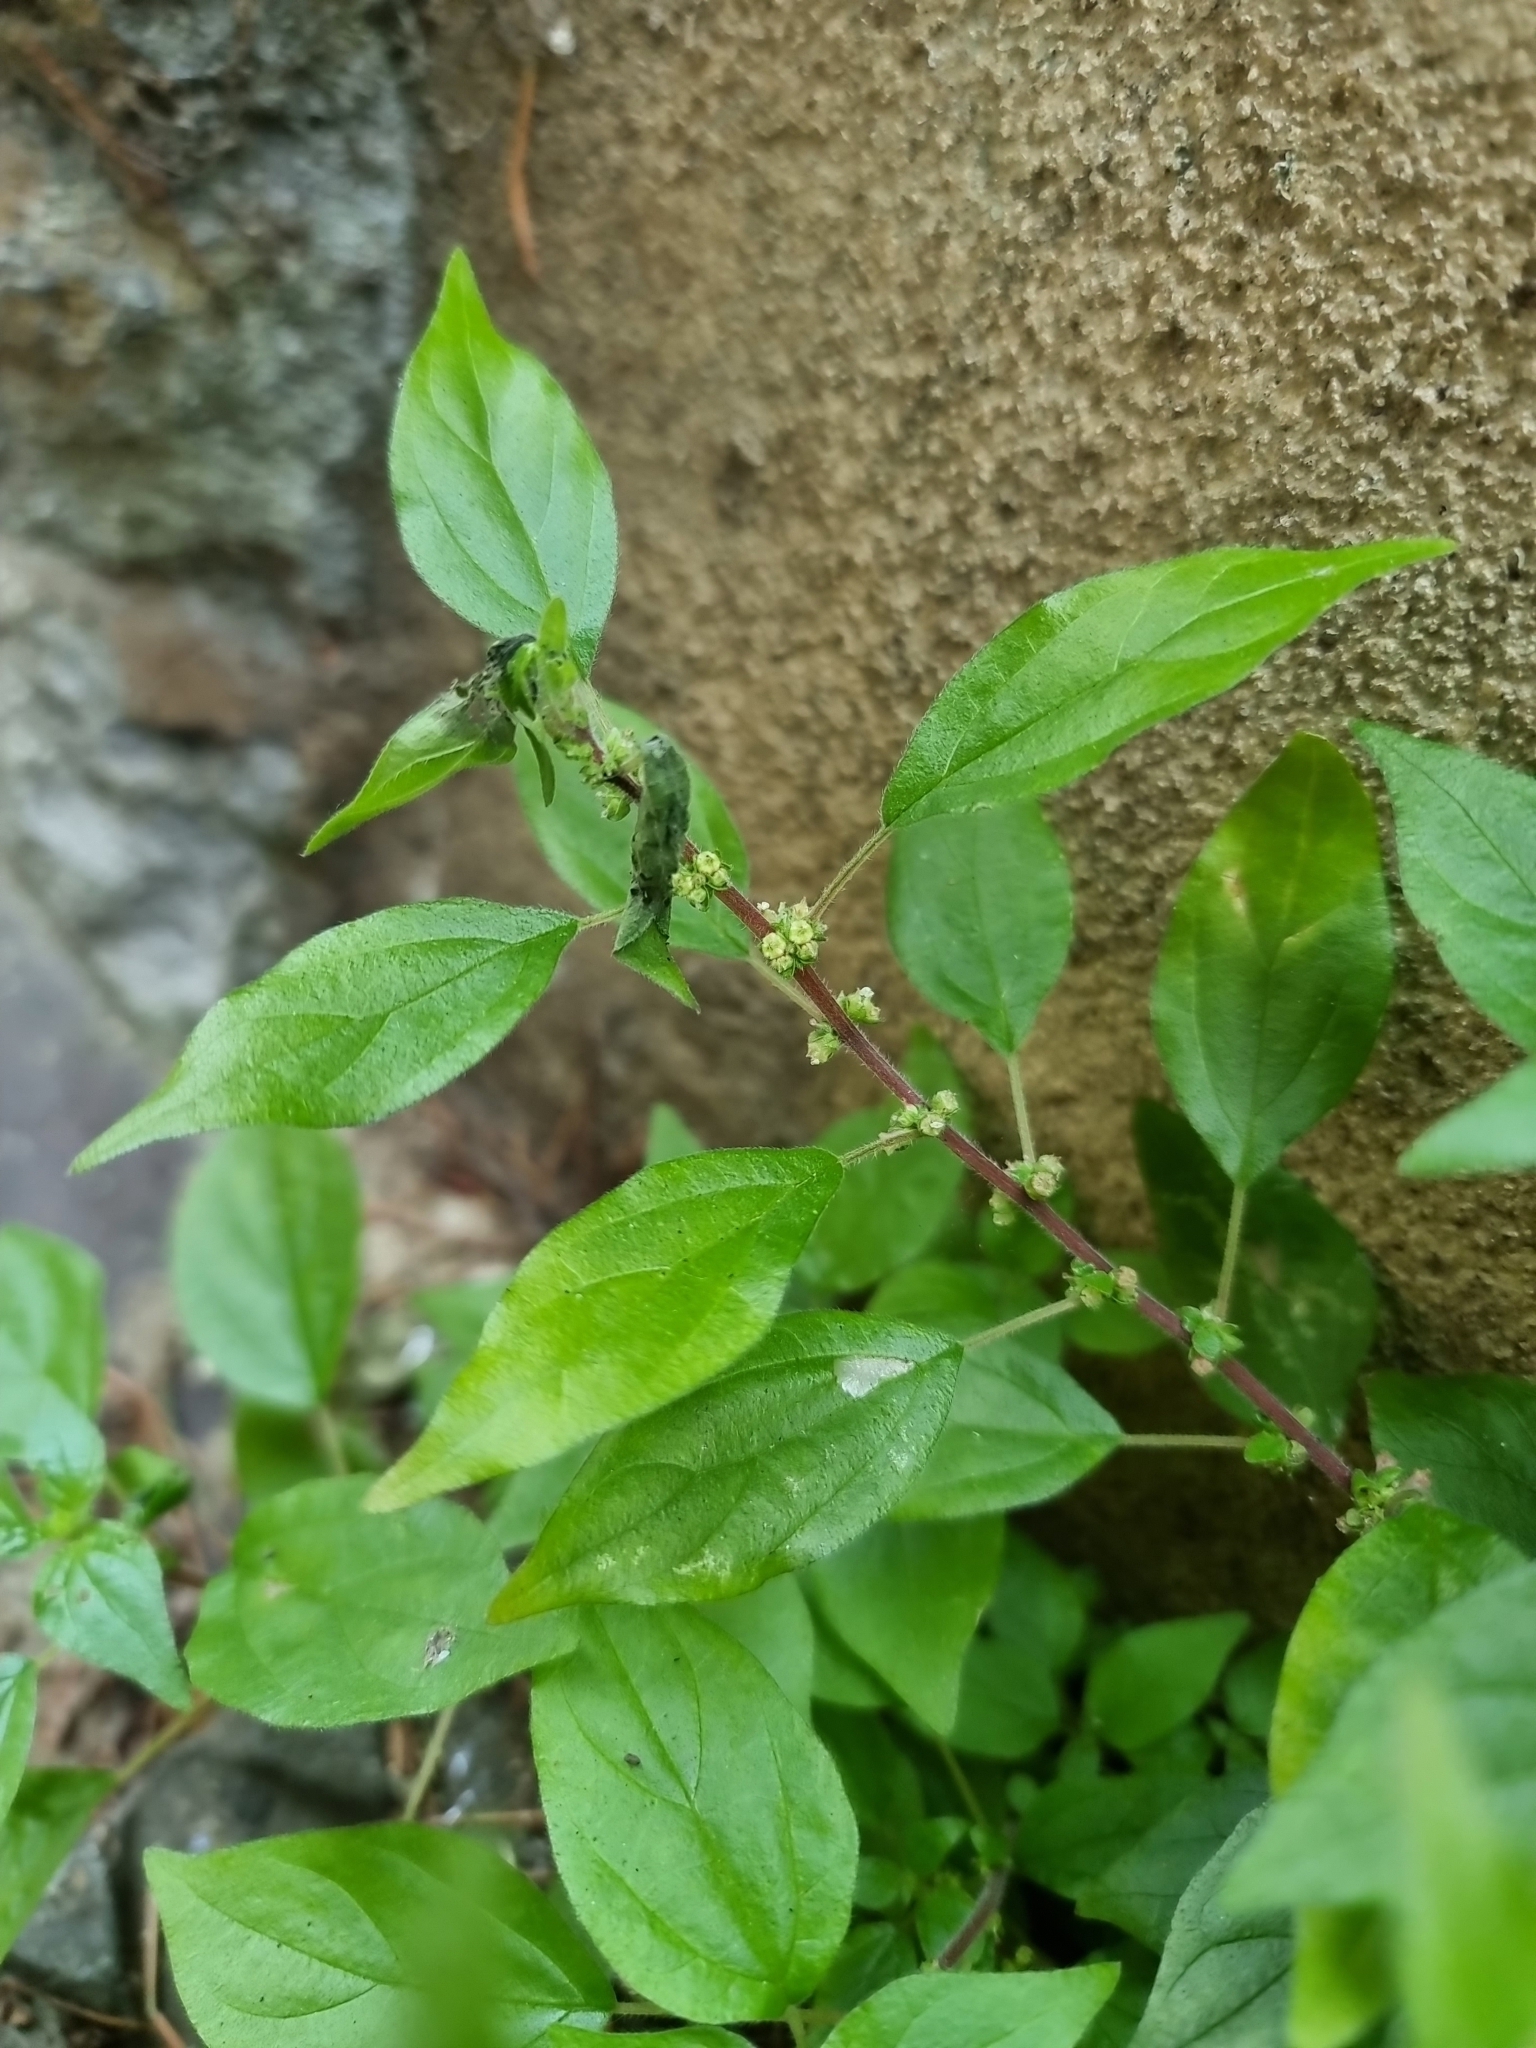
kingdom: Plantae
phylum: Tracheophyta
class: Magnoliopsida
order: Rosales
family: Urticaceae
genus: Parietaria
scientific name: Parietaria judaica
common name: Pellitory-of-the-wall
